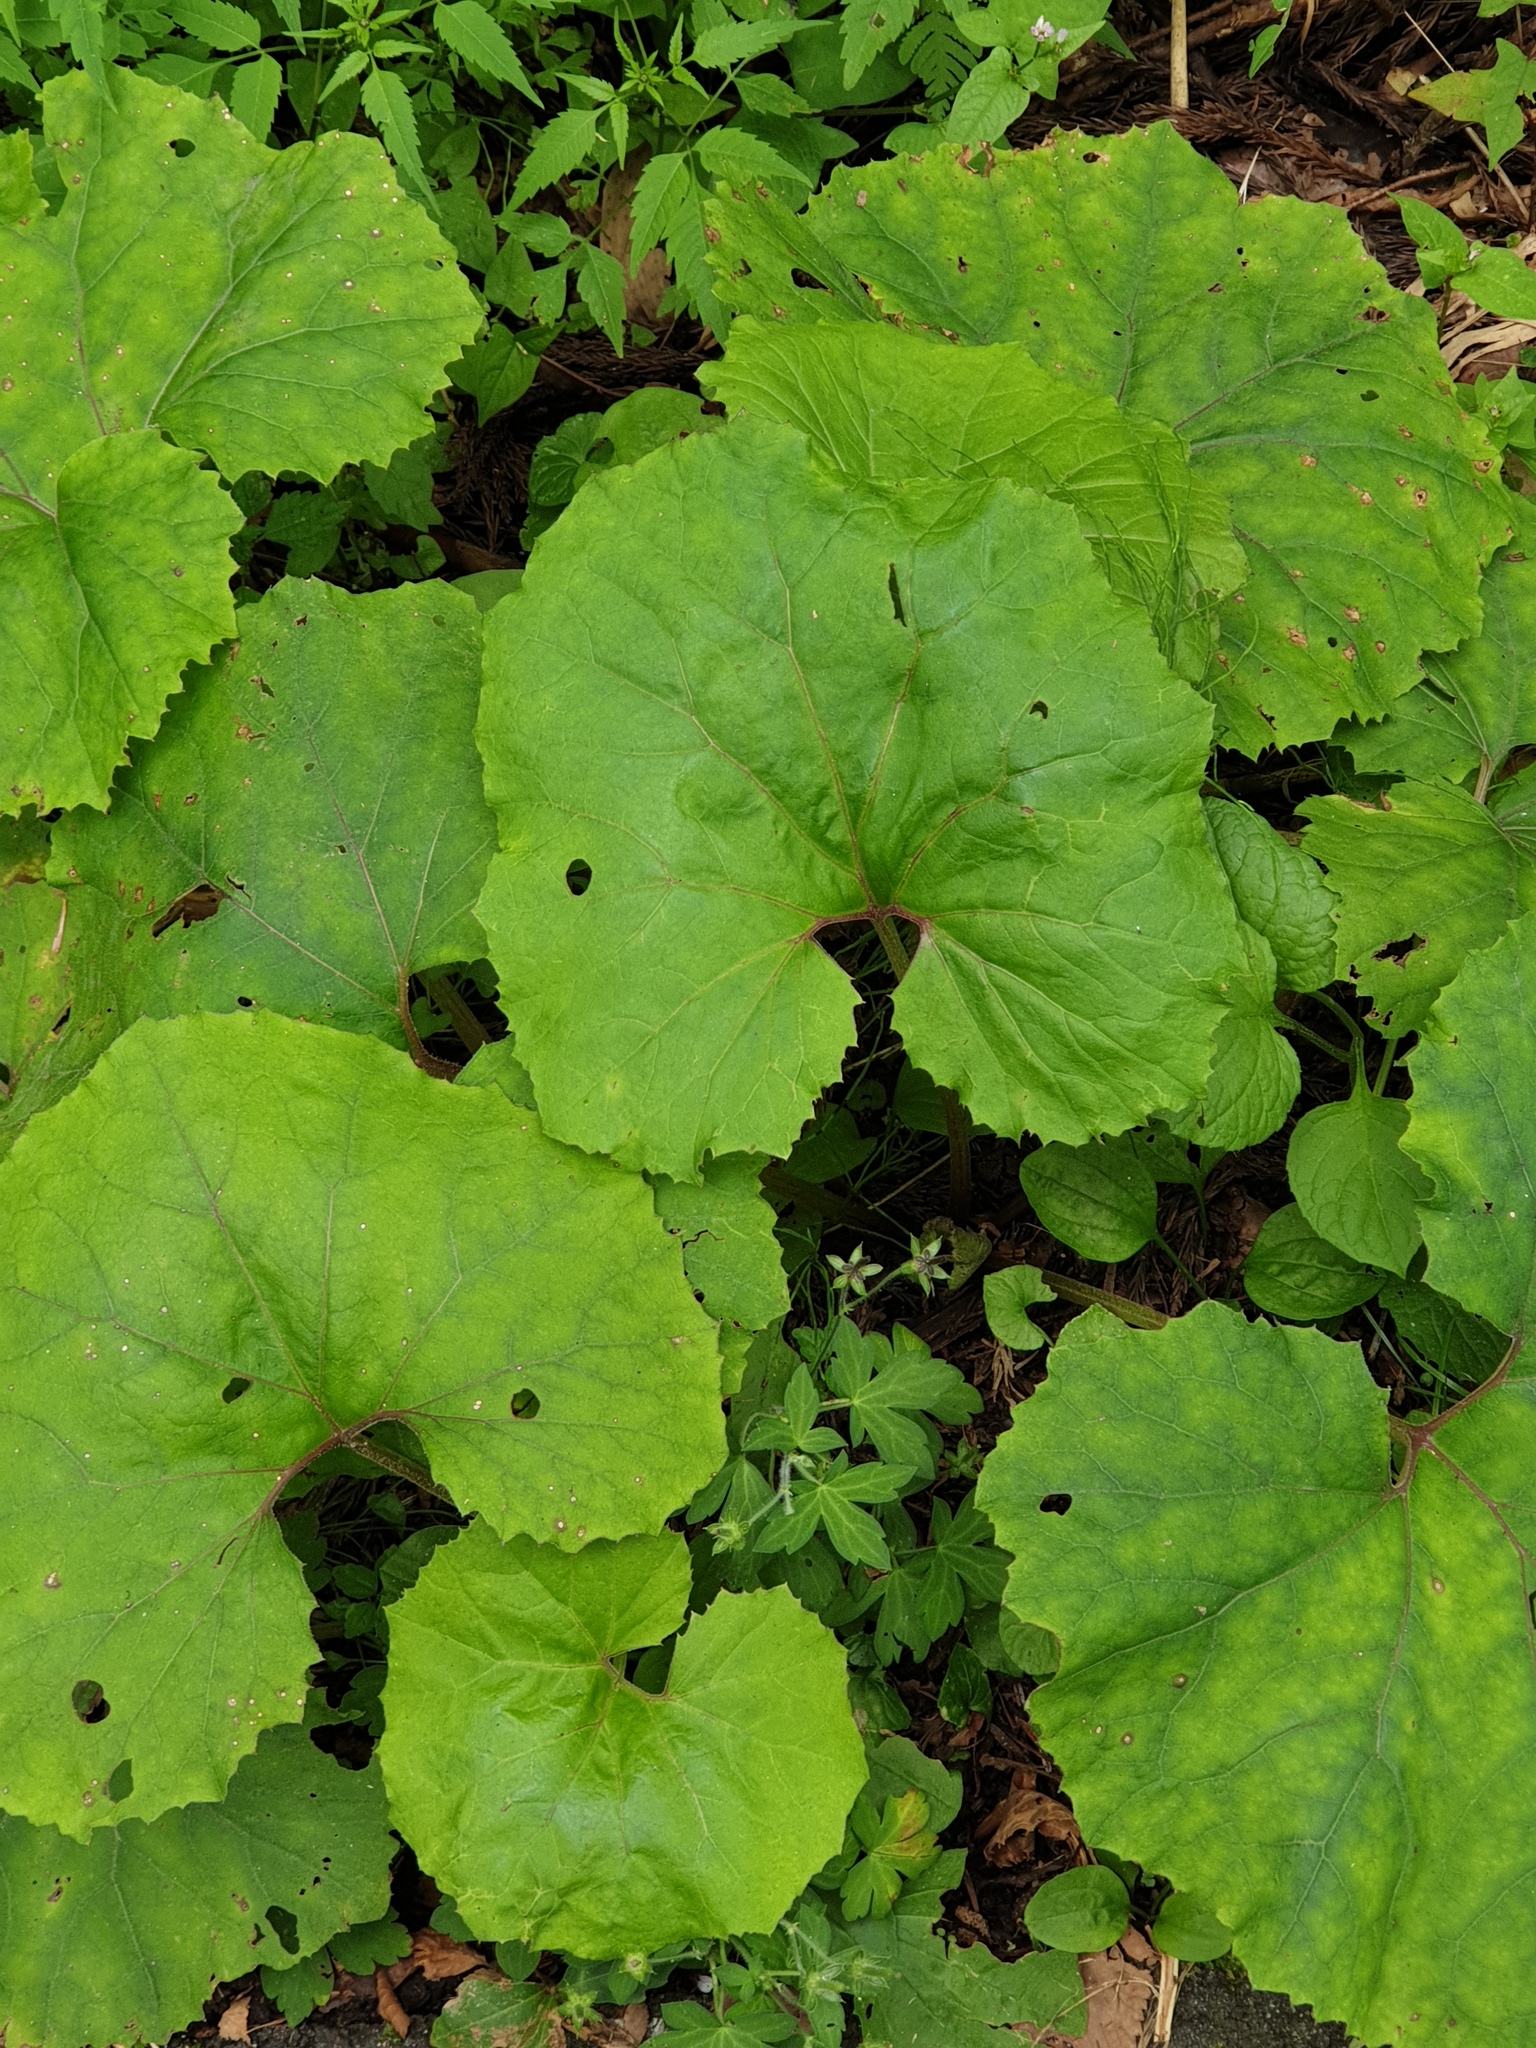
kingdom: Plantae
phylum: Tracheophyta
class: Magnoliopsida
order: Asterales
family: Asteraceae
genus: Petasites
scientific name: Petasites japonicus
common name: Giant butterbur
